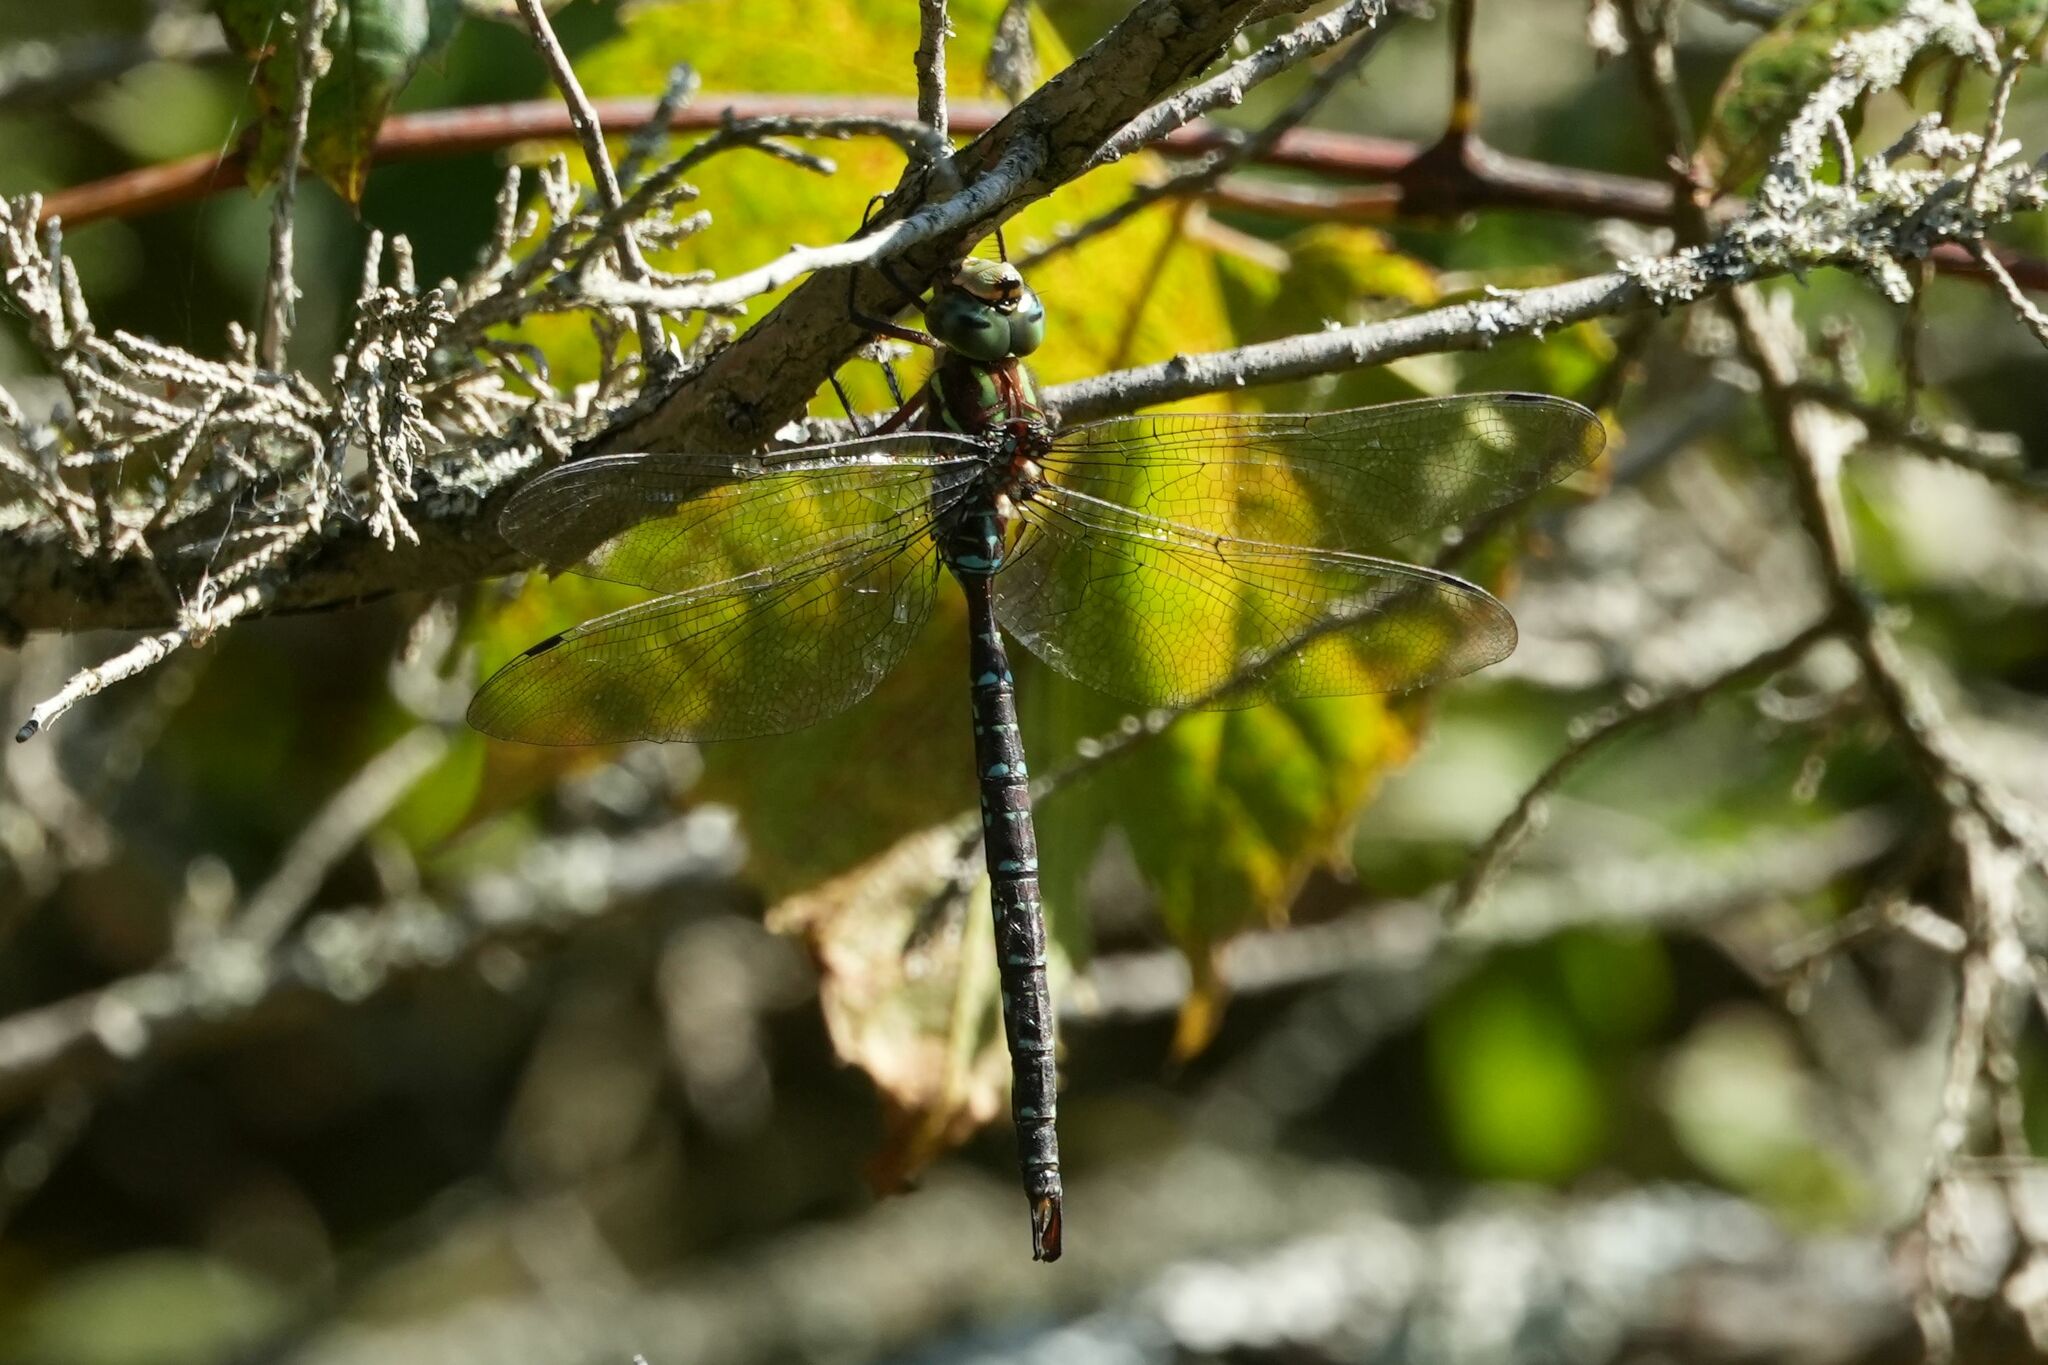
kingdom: Animalia
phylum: Arthropoda
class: Insecta
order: Odonata
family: Aeshnidae
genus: Aeshna
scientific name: Aeshna umbrosa
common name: Shadow darner
